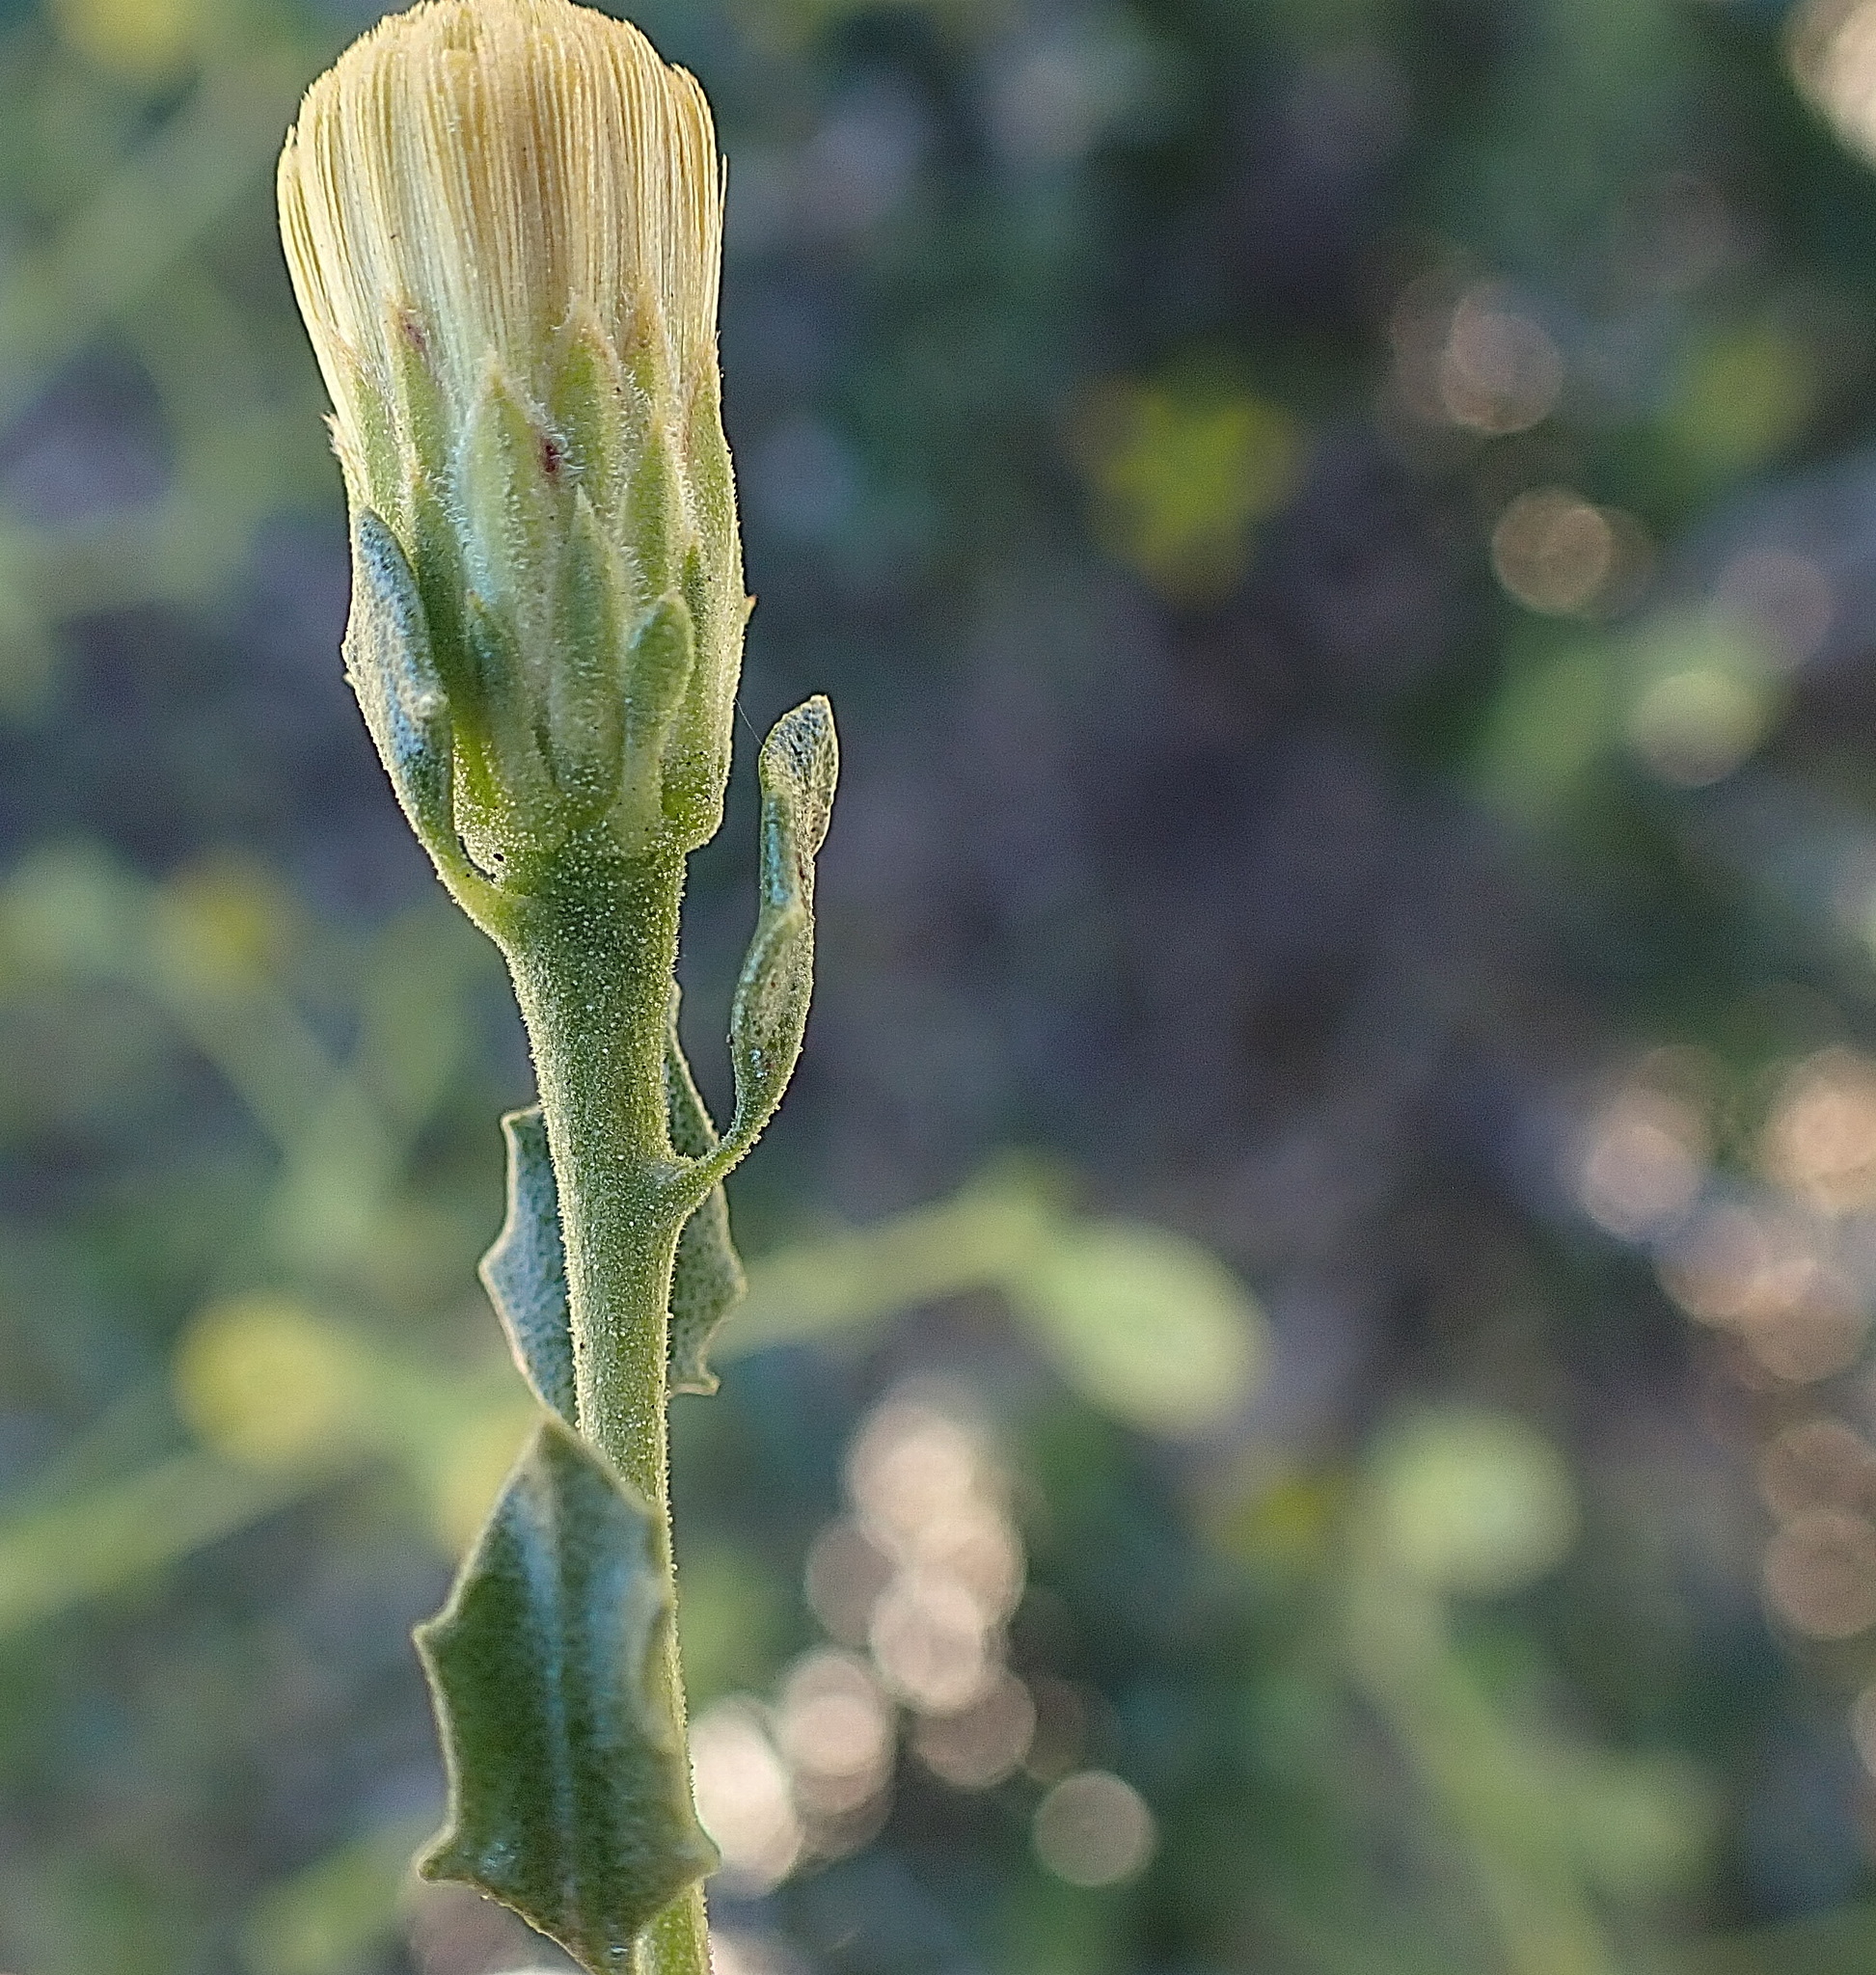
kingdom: Plantae
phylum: Tracheophyta
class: Magnoliopsida
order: Asterales
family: Asteraceae
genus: Pegolettia
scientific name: Pegolettia baccaridifolia
